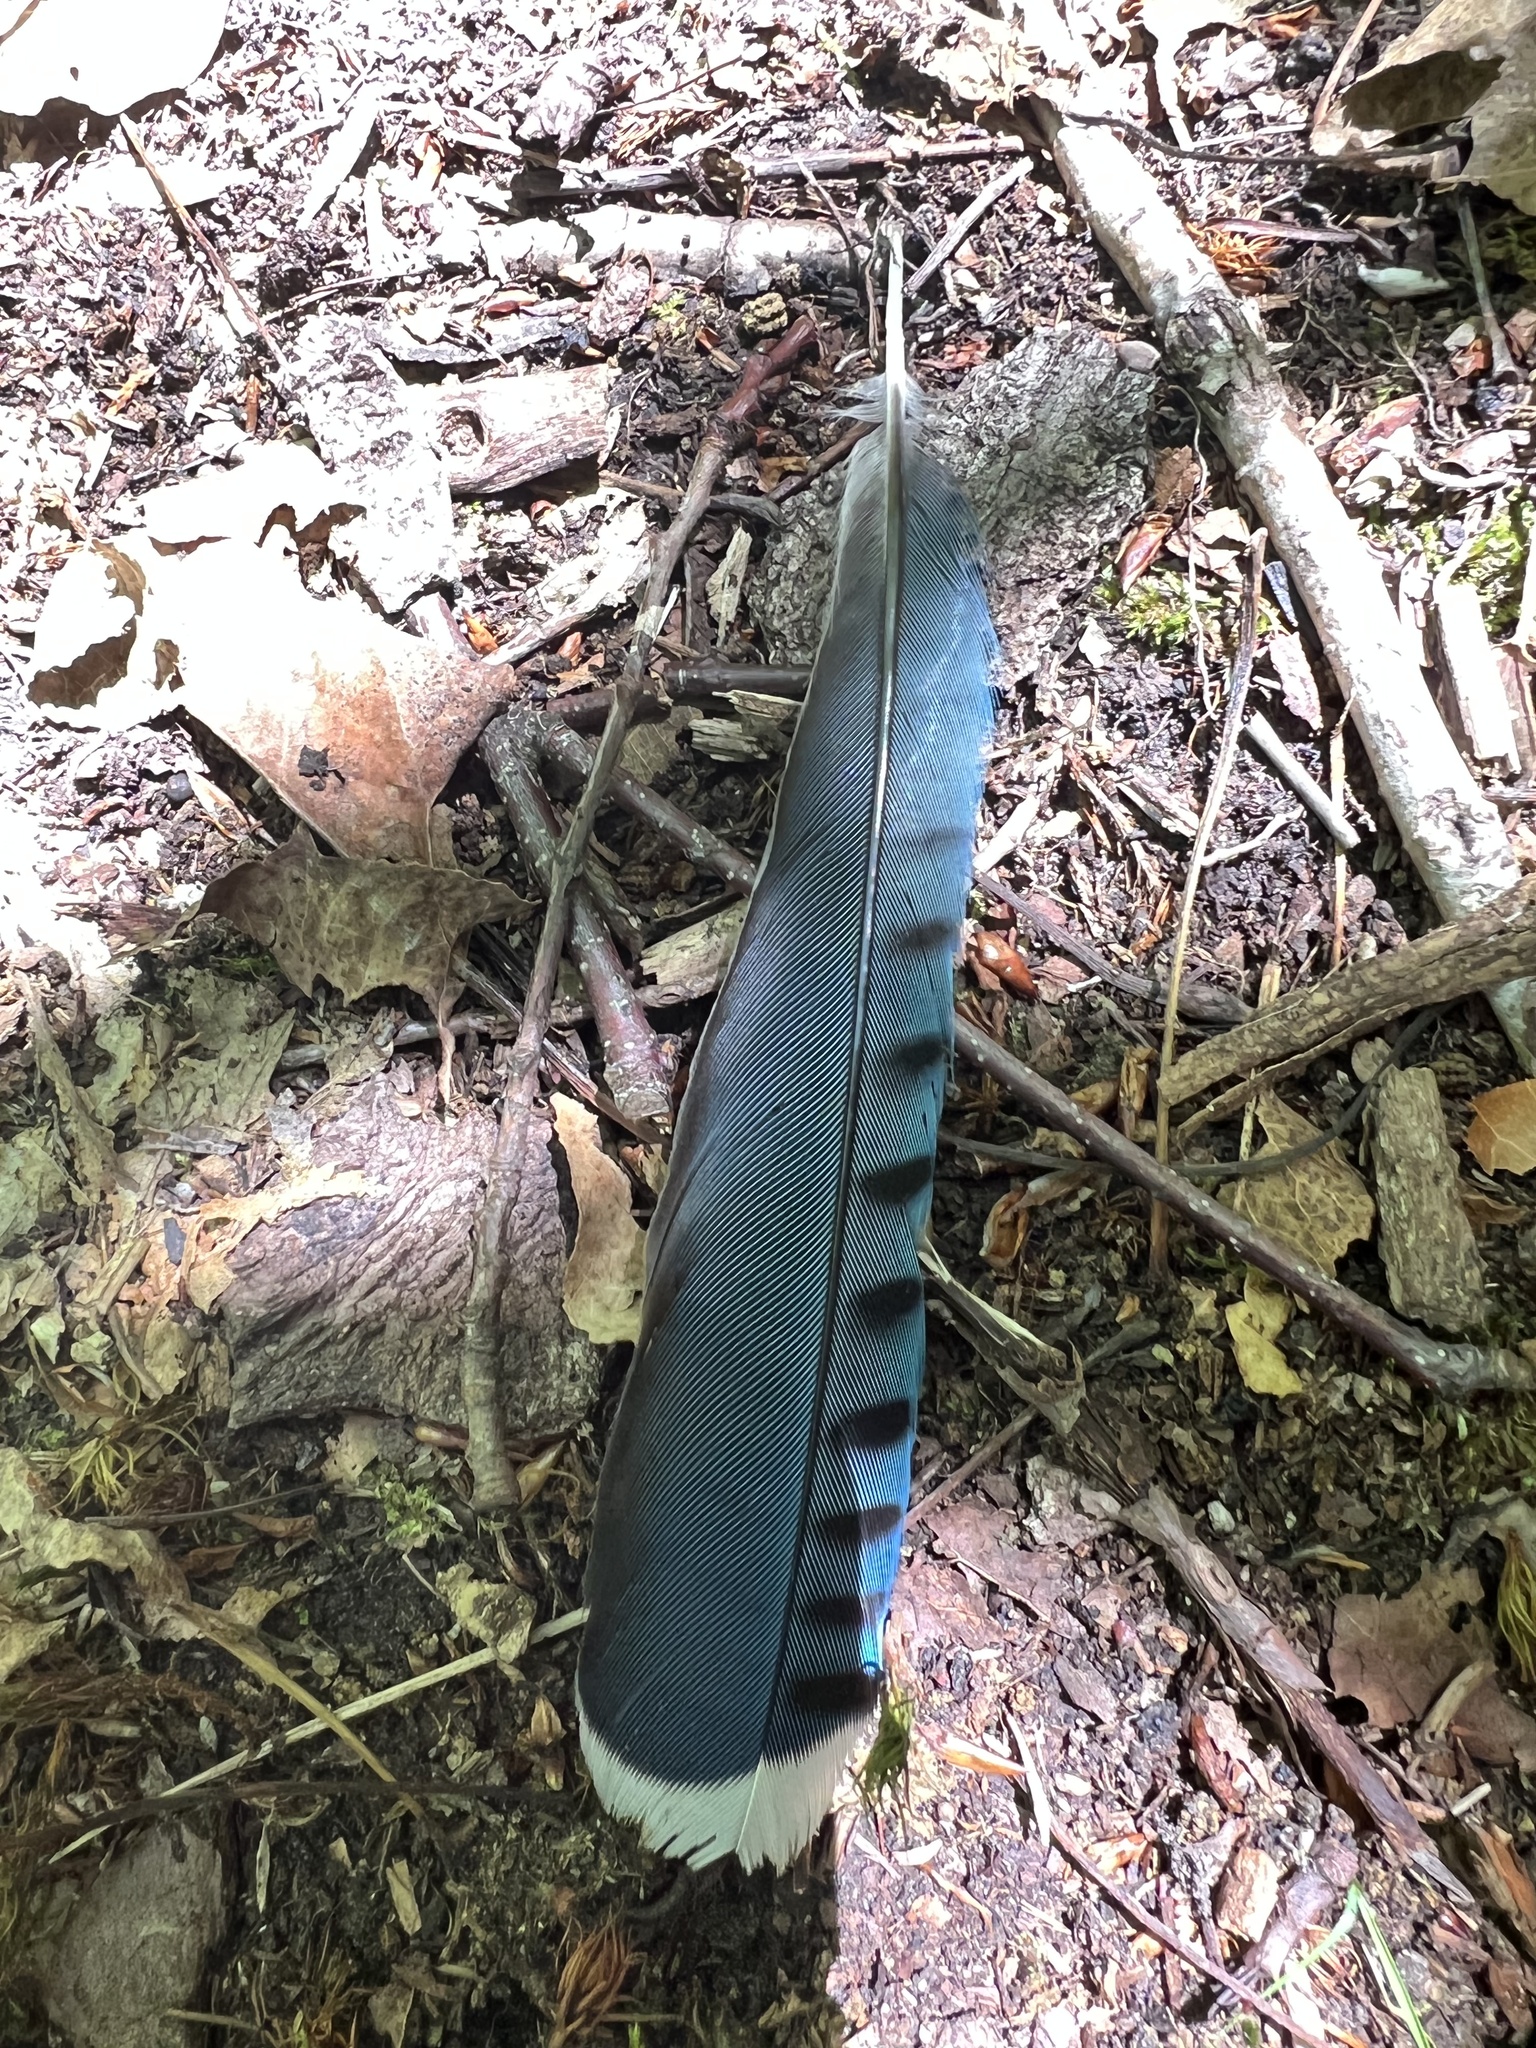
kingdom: Animalia
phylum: Chordata
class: Aves
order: Passeriformes
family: Corvidae
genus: Cyanocitta
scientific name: Cyanocitta cristata
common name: Blue jay
